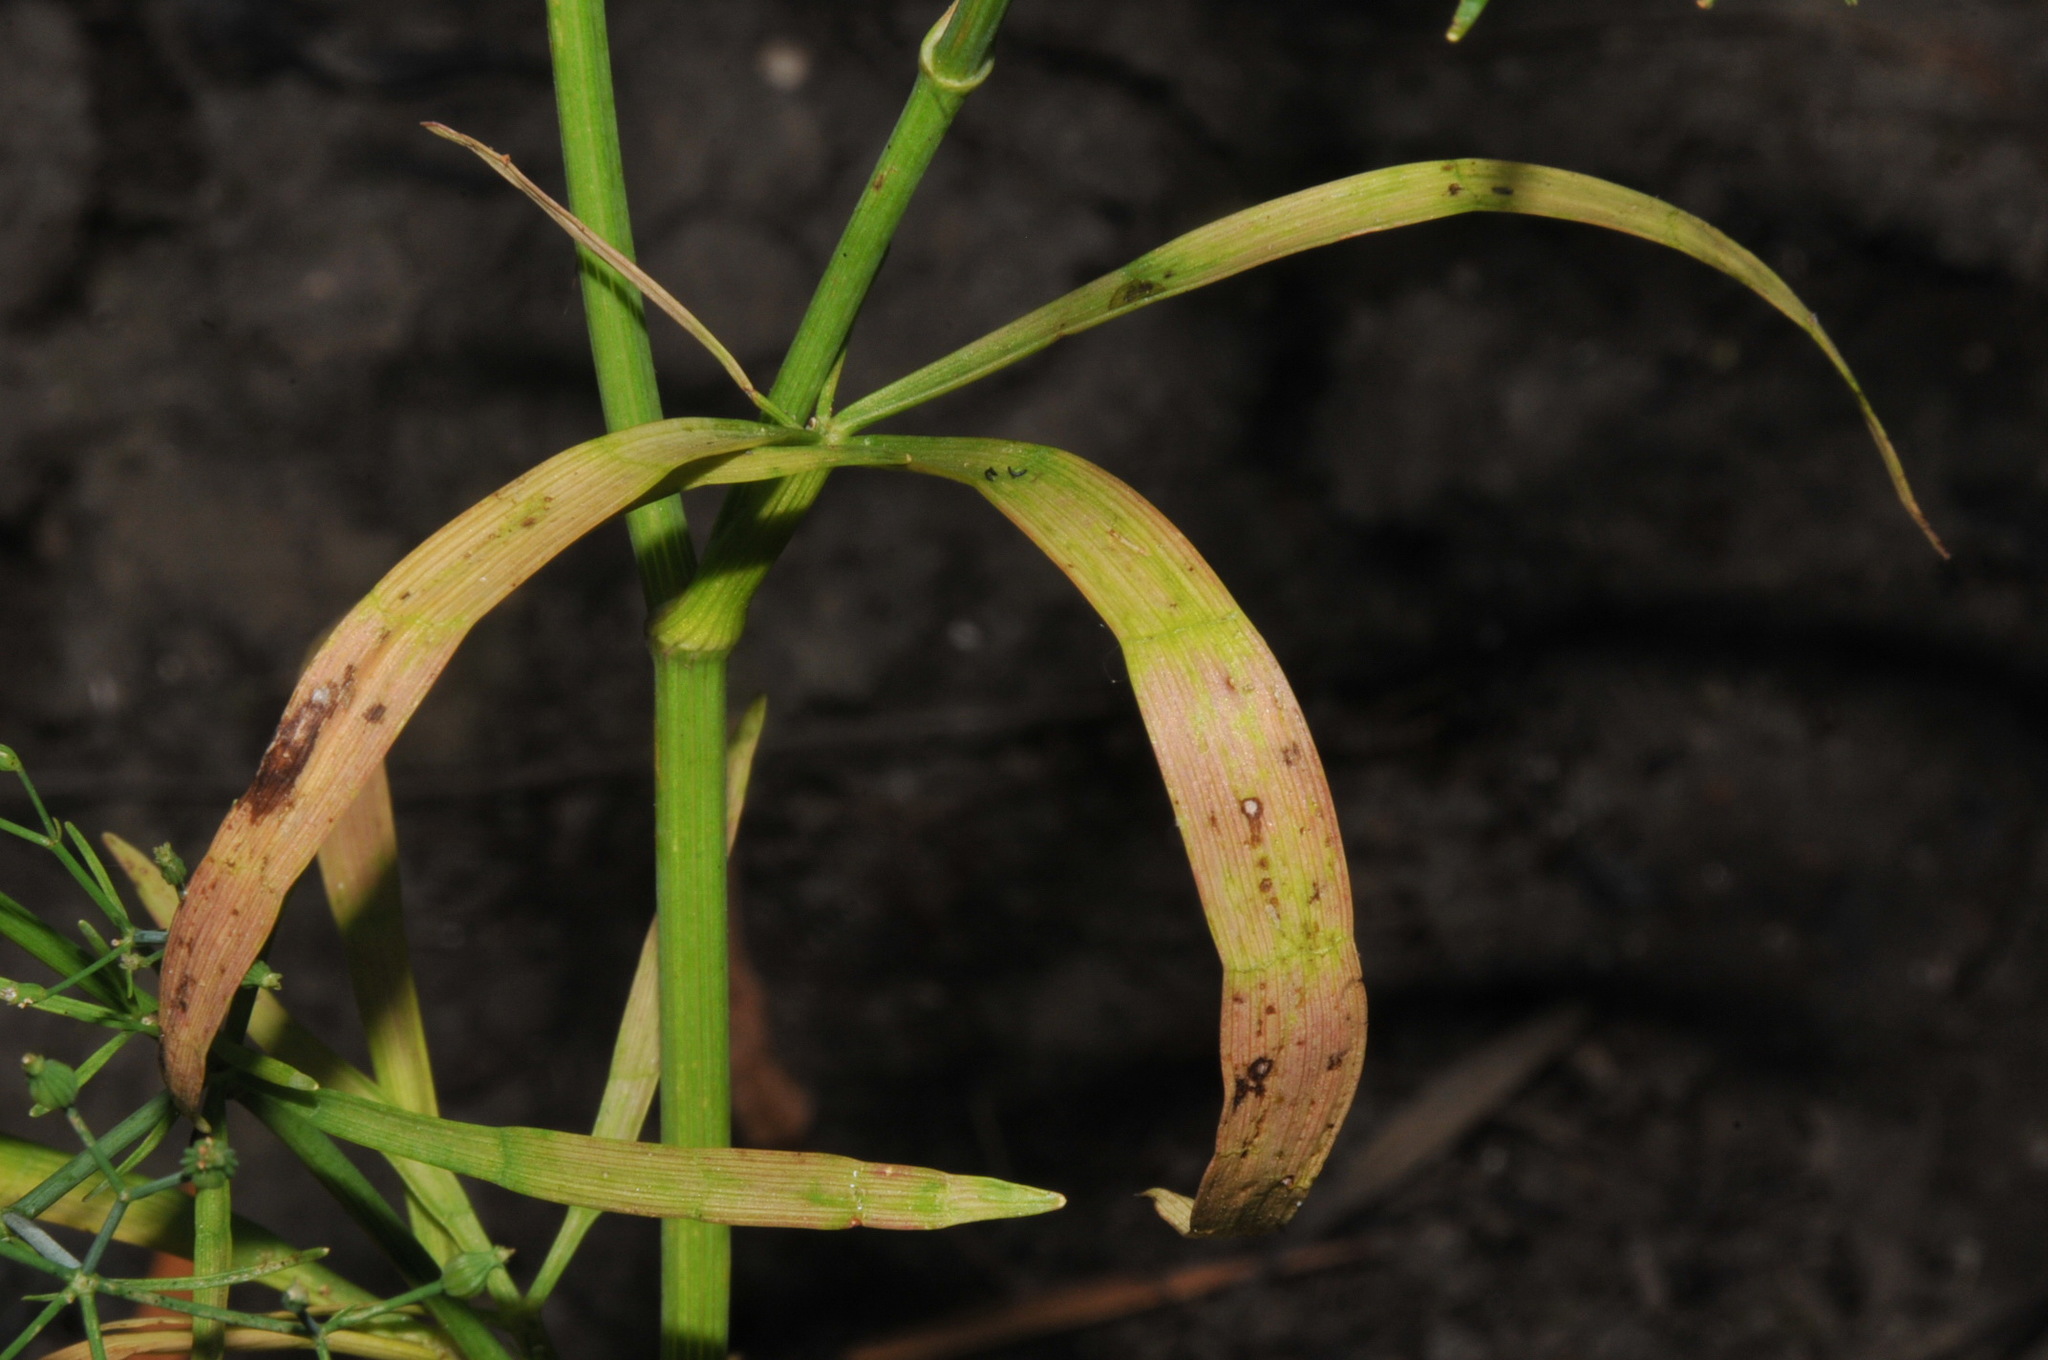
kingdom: Plantae
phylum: Tracheophyta
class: Magnoliopsida
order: Apiales
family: Apiaceae
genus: Cynosciadium
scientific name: Cynosciadium digitatum
